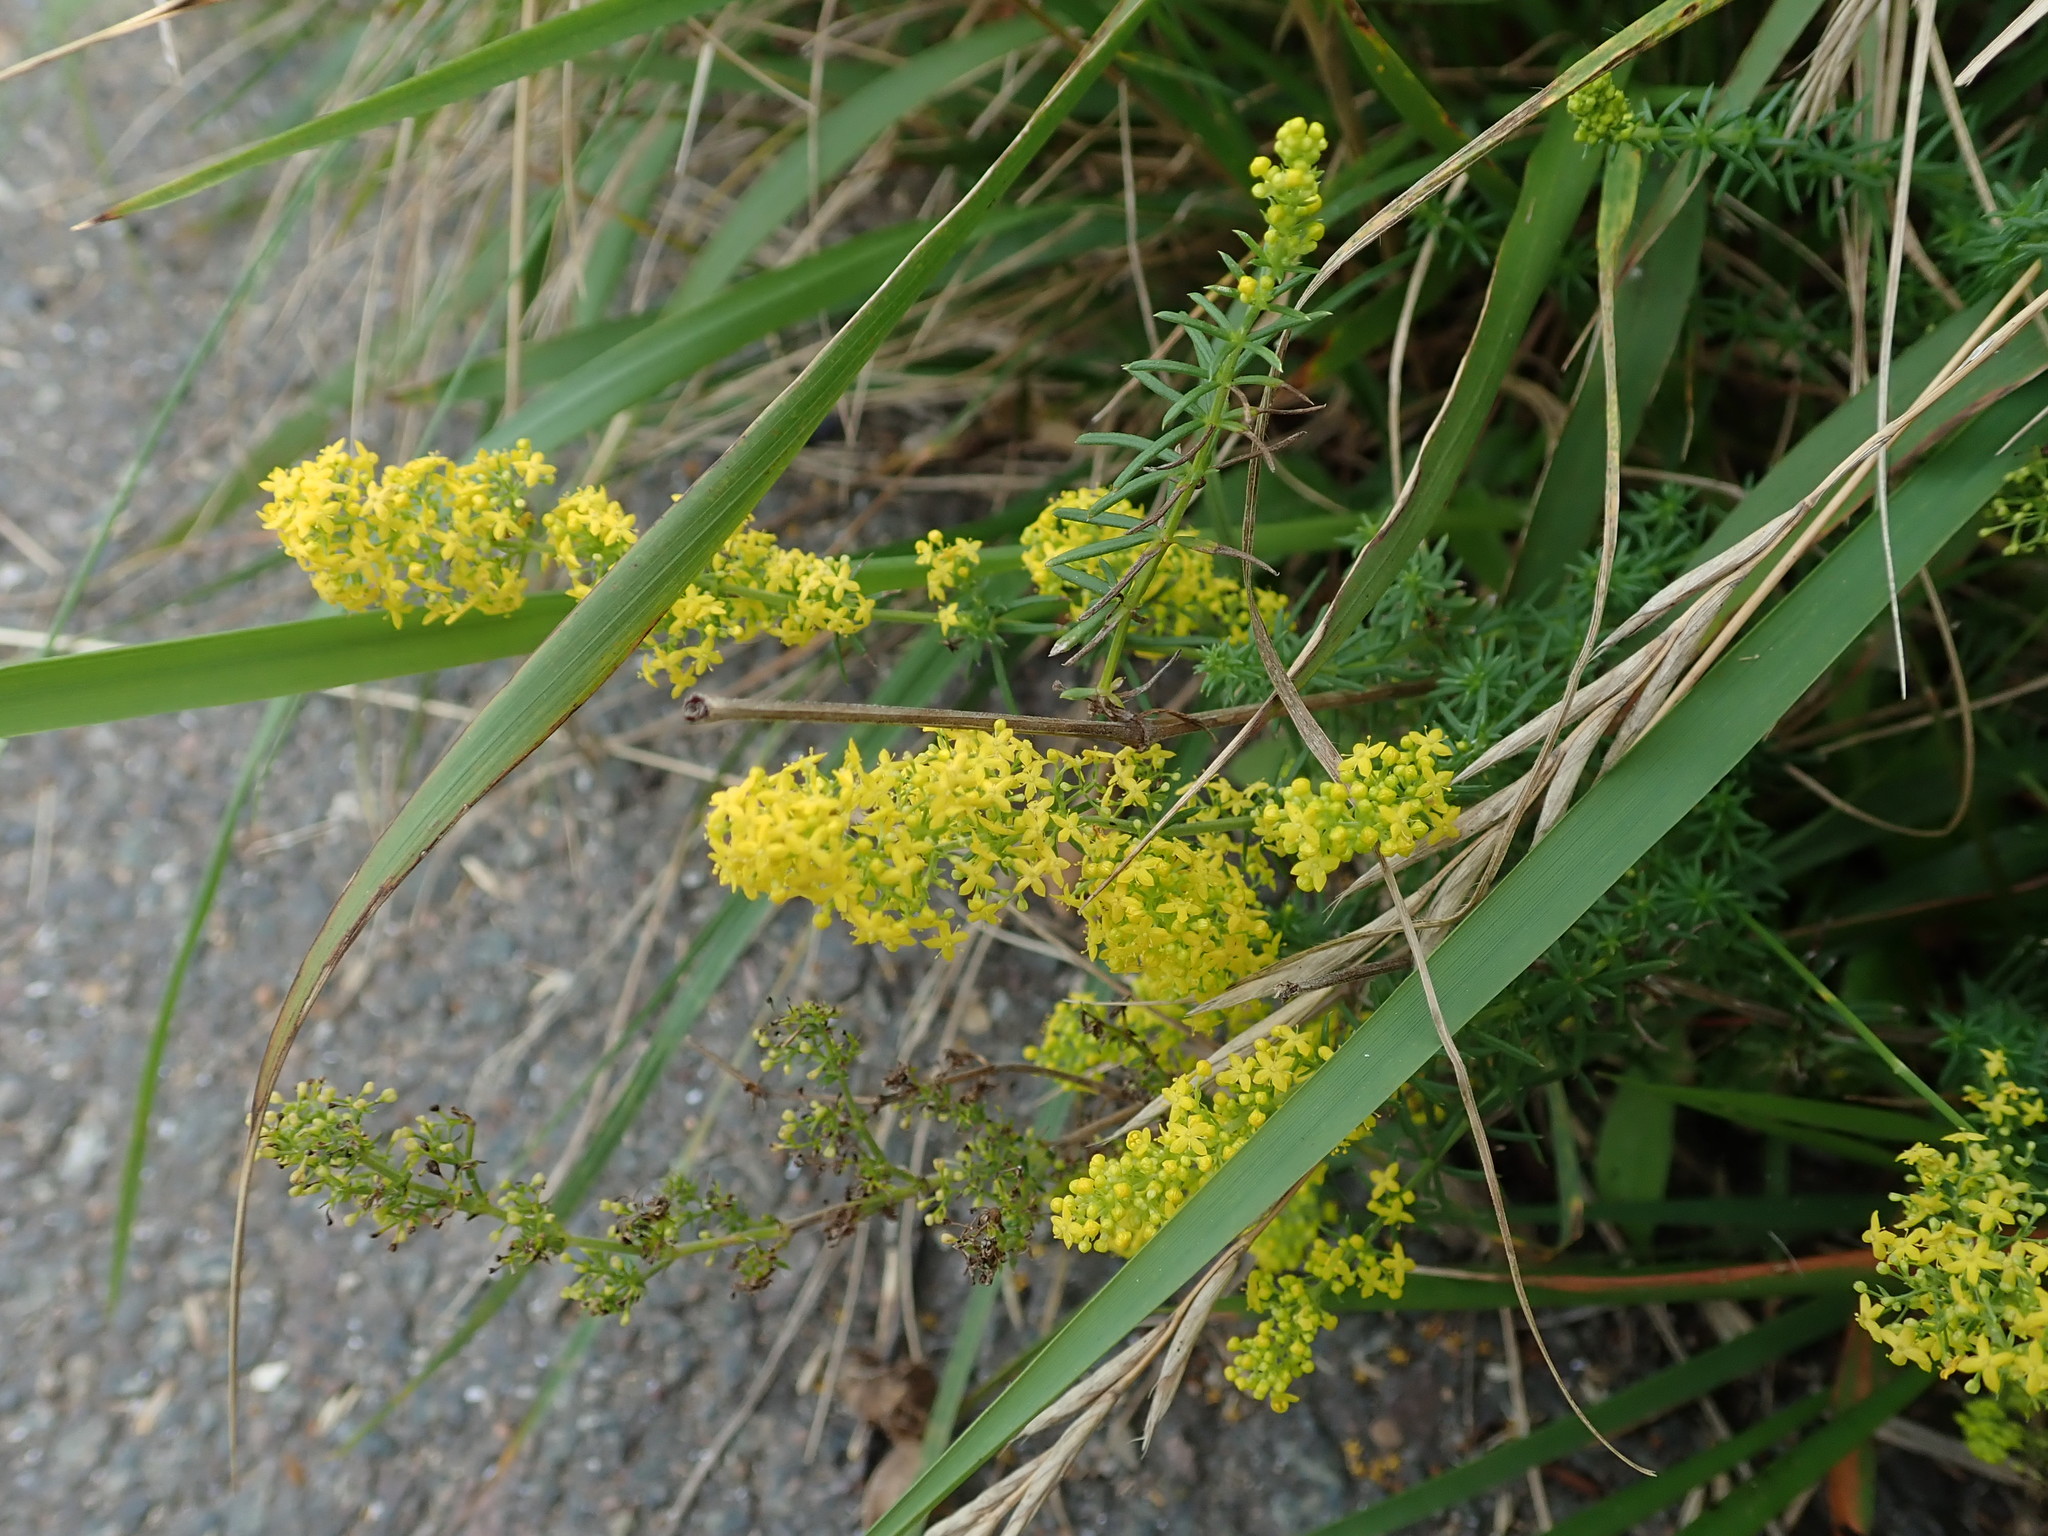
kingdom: Plantae
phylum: Tracheophyta
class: Magnoliopsida
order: Gentianales
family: Rubiaceae
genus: Galium
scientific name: Galium verum
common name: Lady's bedstraw
